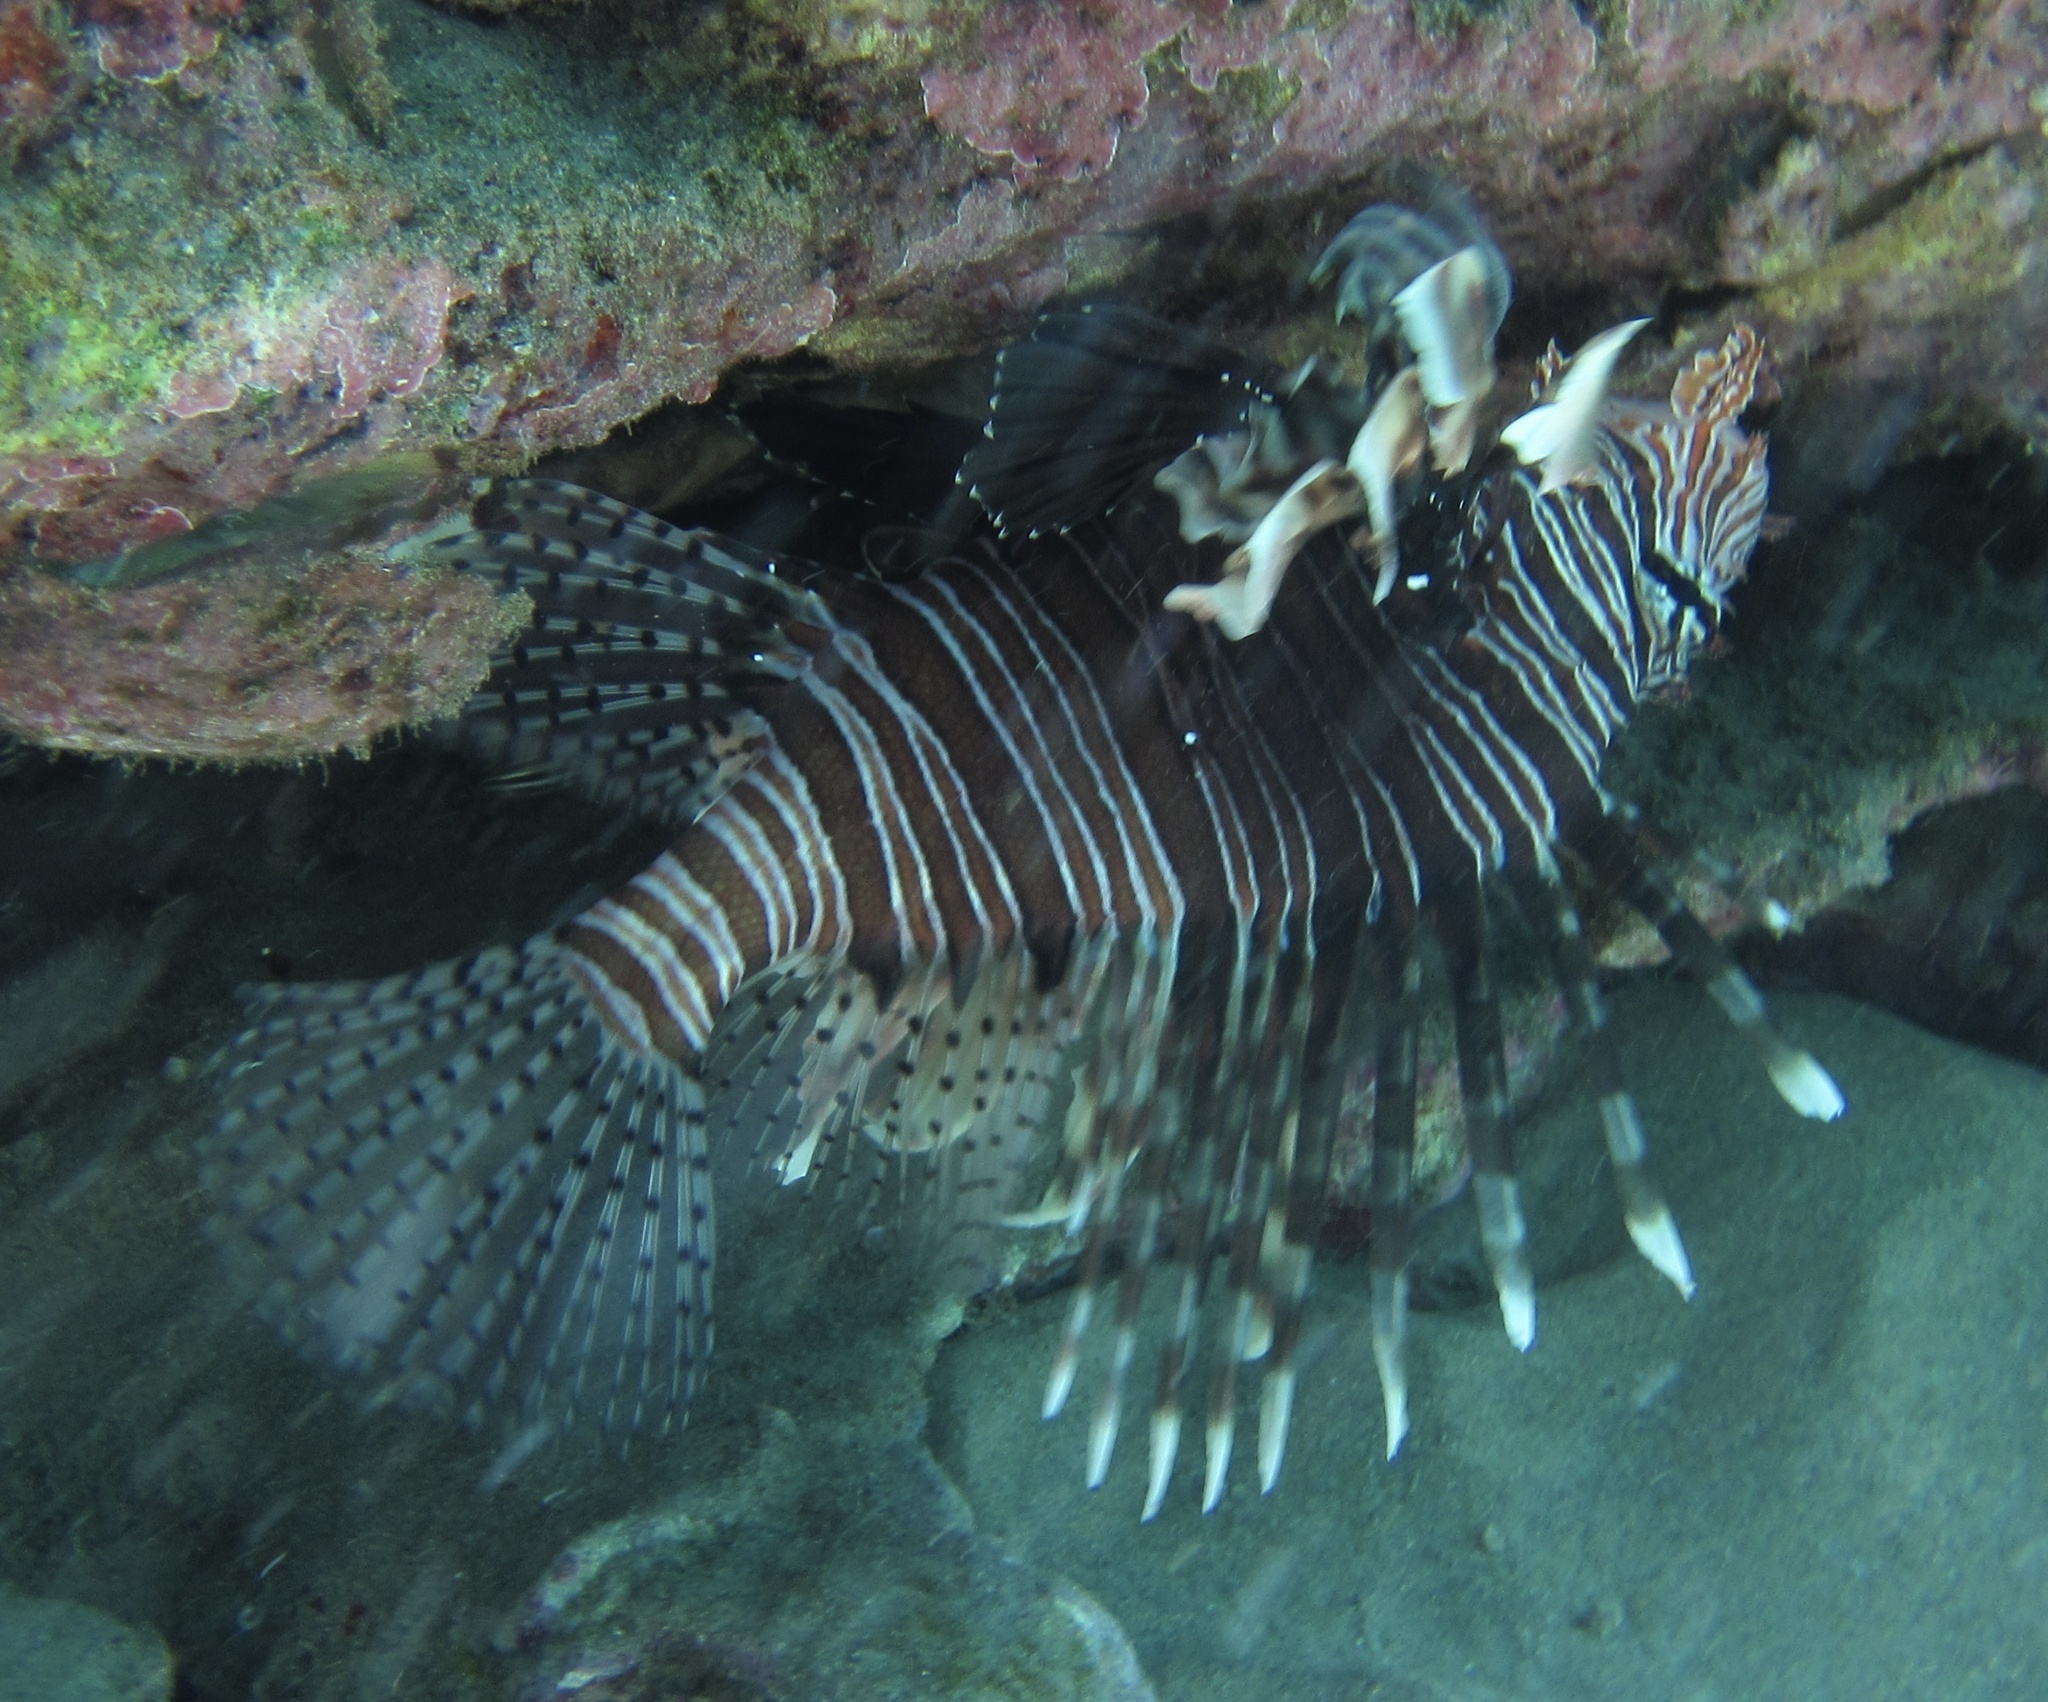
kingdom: Animalia
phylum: Chordata
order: Scorpaeniformes
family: Scorpaenidae
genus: Pterois
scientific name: Pterois miles
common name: Devil firefish
